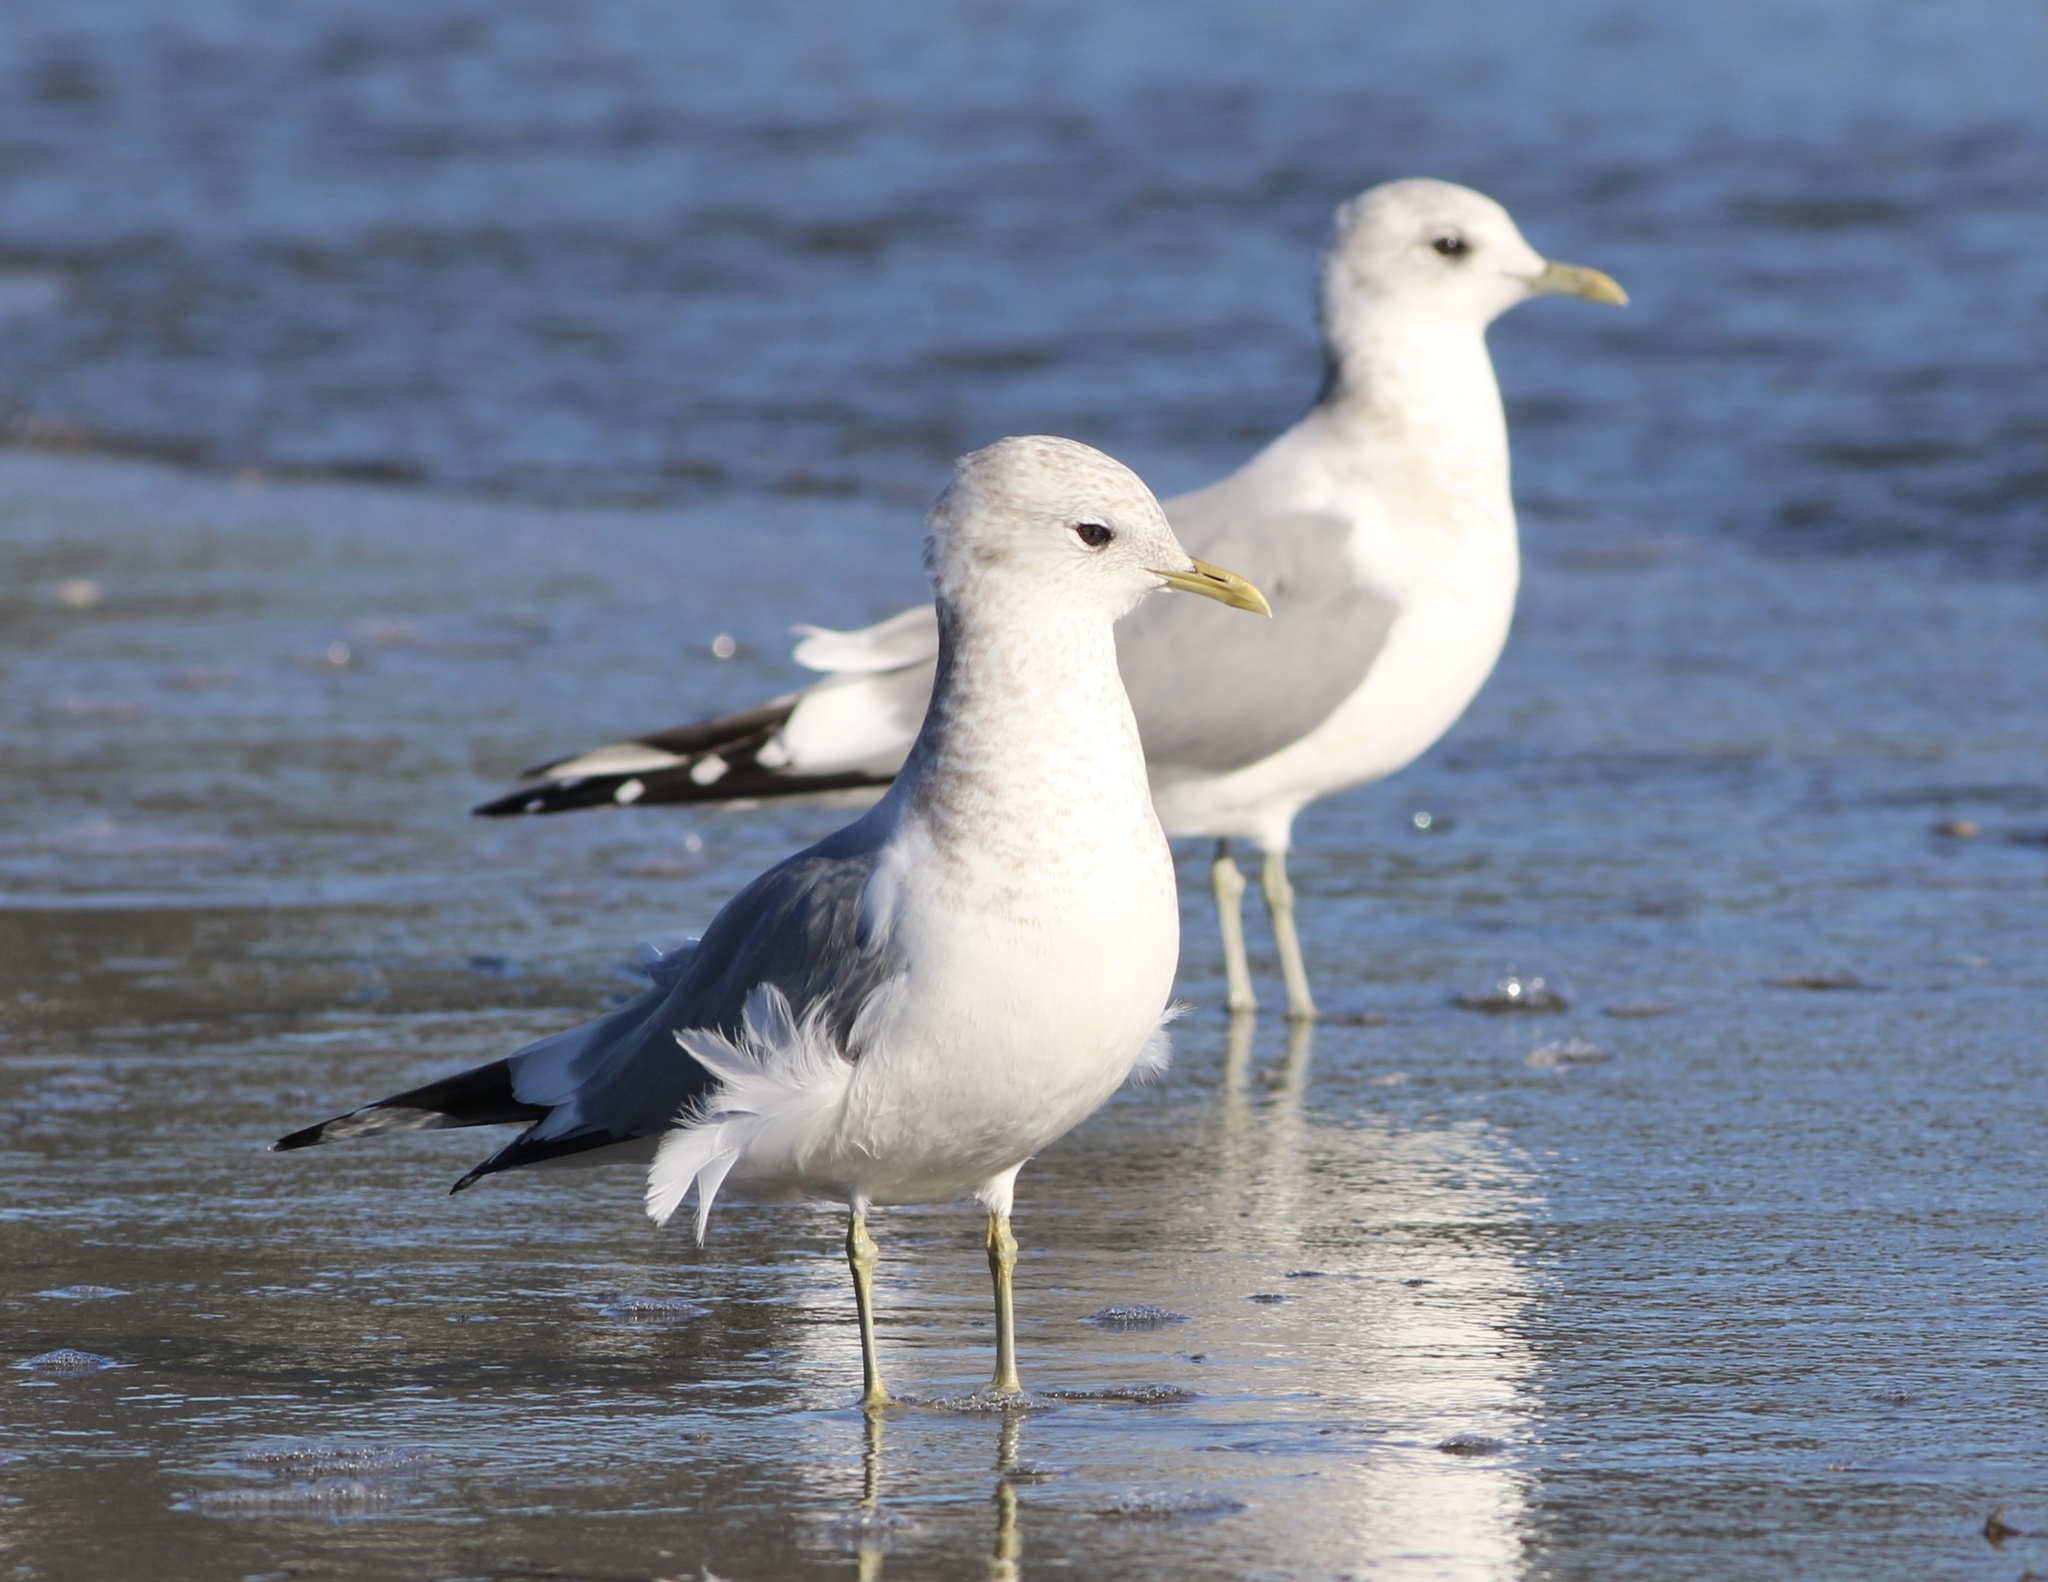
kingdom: Animalia
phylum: Chordata
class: Aves
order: Charadriiformes
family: Laridae
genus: Larus
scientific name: Larus brachyrhynchus
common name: Short-billed gull
